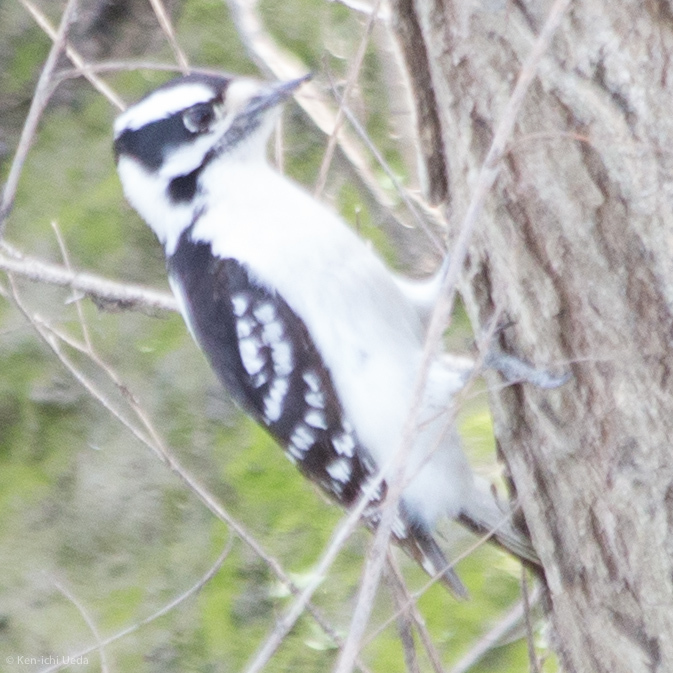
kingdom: Animalia
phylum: Chordata
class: Aves
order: Piciformes
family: Picidae
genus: Dryobates
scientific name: Dryobates pubescens
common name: Downy woodpecker
